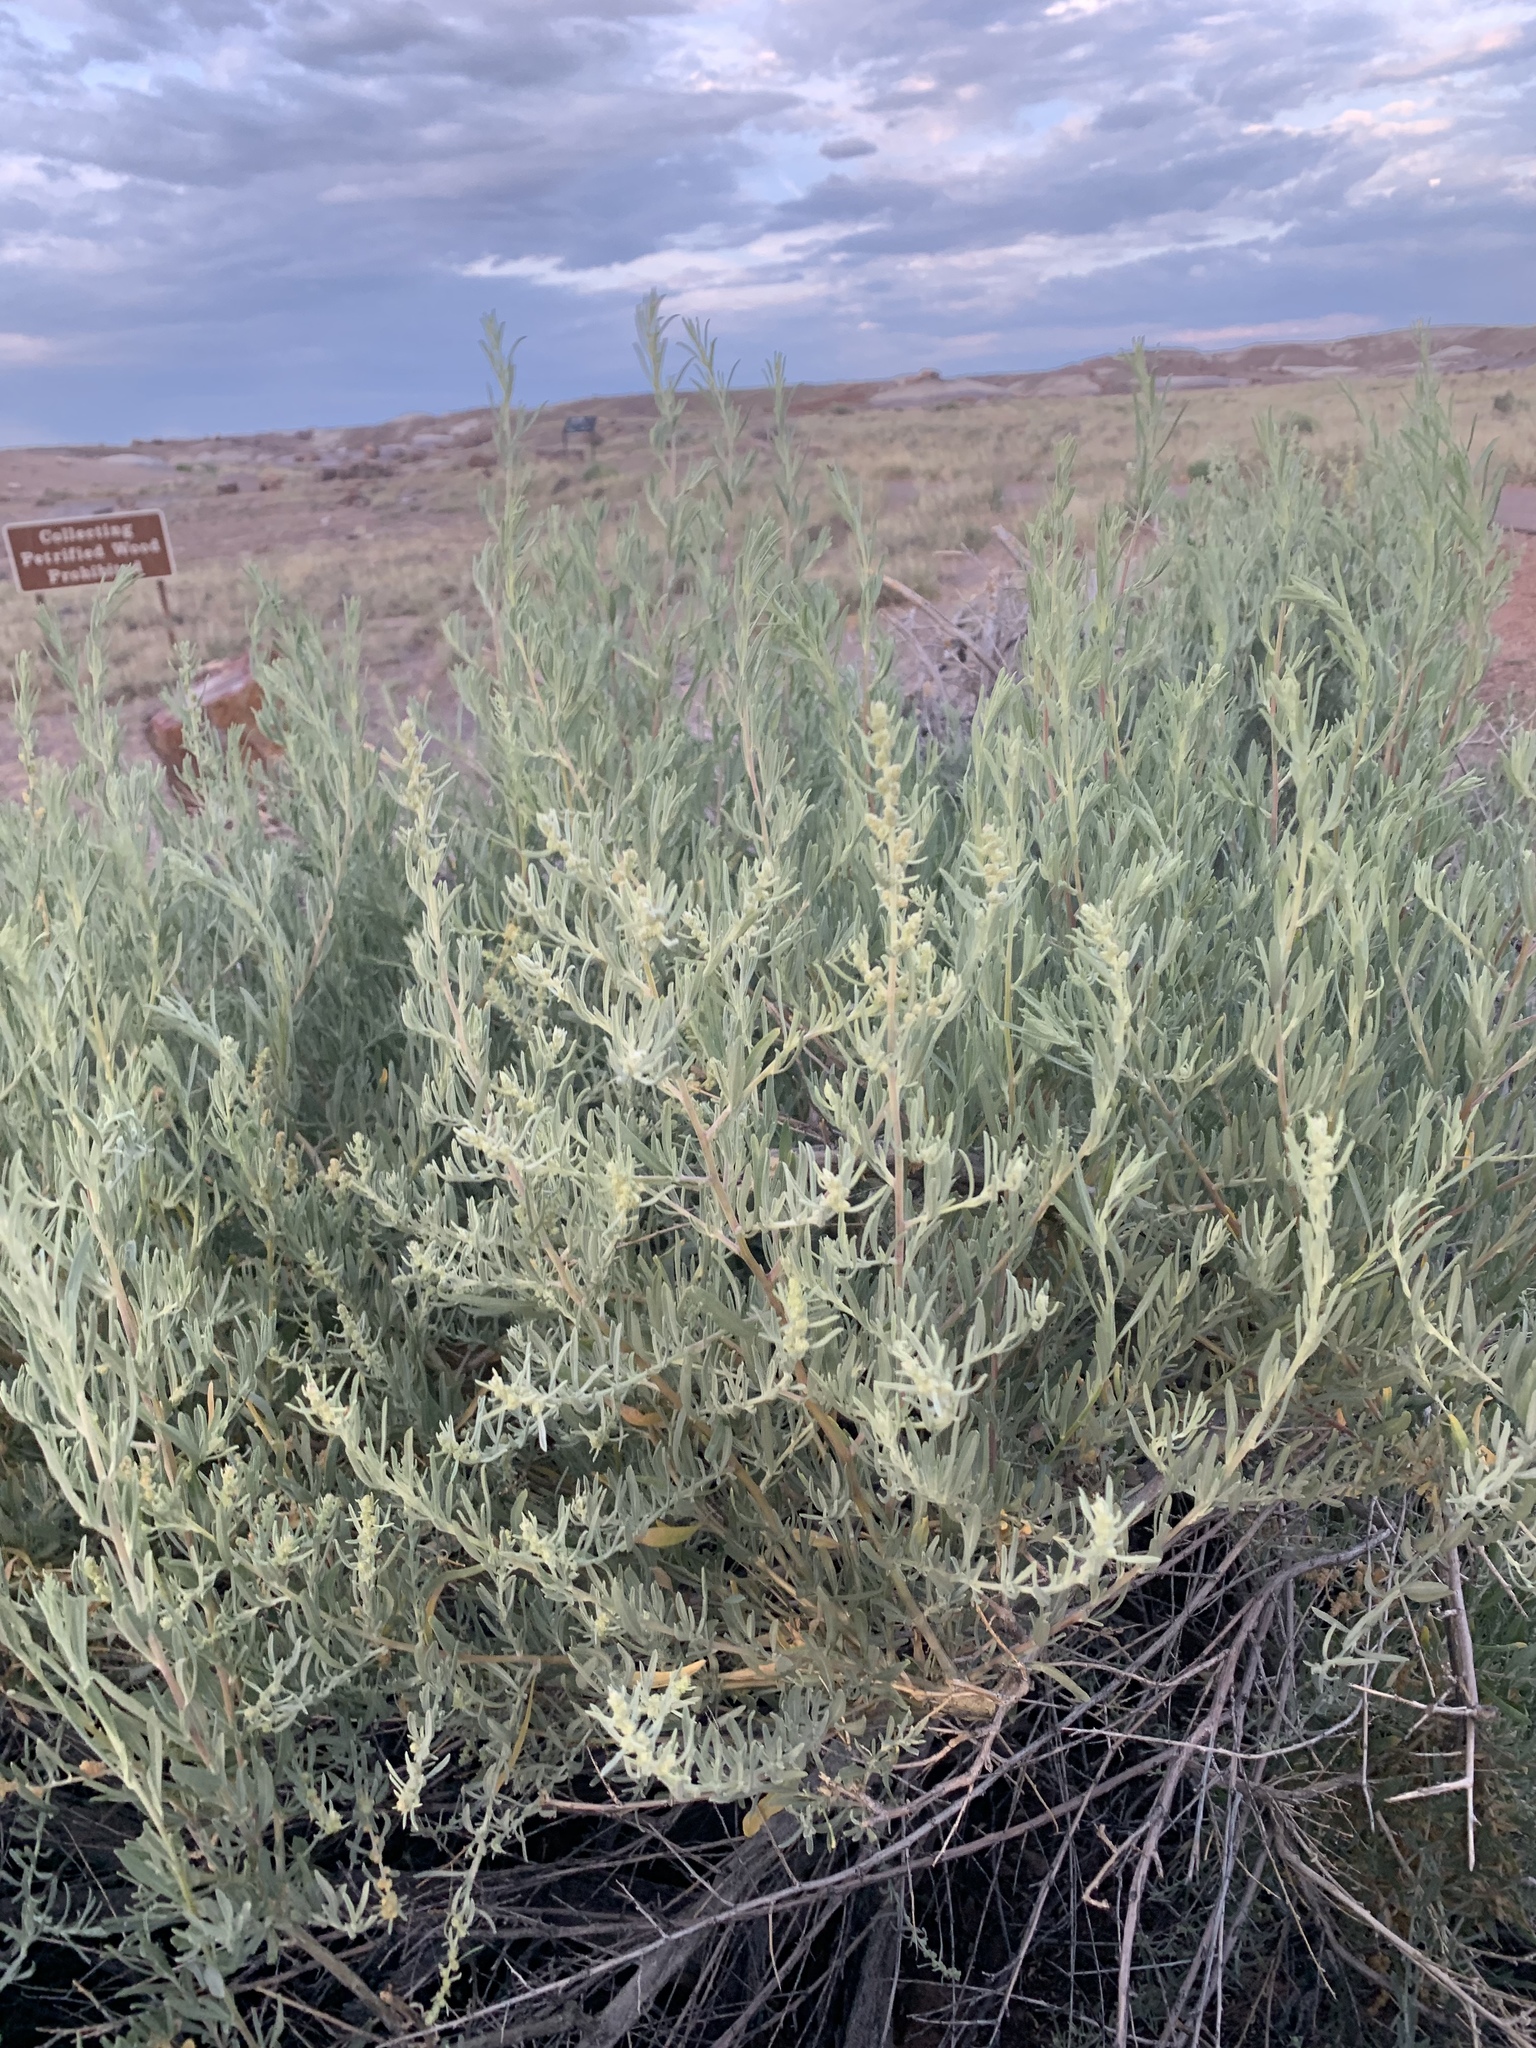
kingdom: Plantae
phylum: Tracheophyta
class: Magnoliopsida
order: Caryophyllales
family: Amaranthaceae
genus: Atriplex
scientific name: Atriplex canescens
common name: Four-wing saltbush
